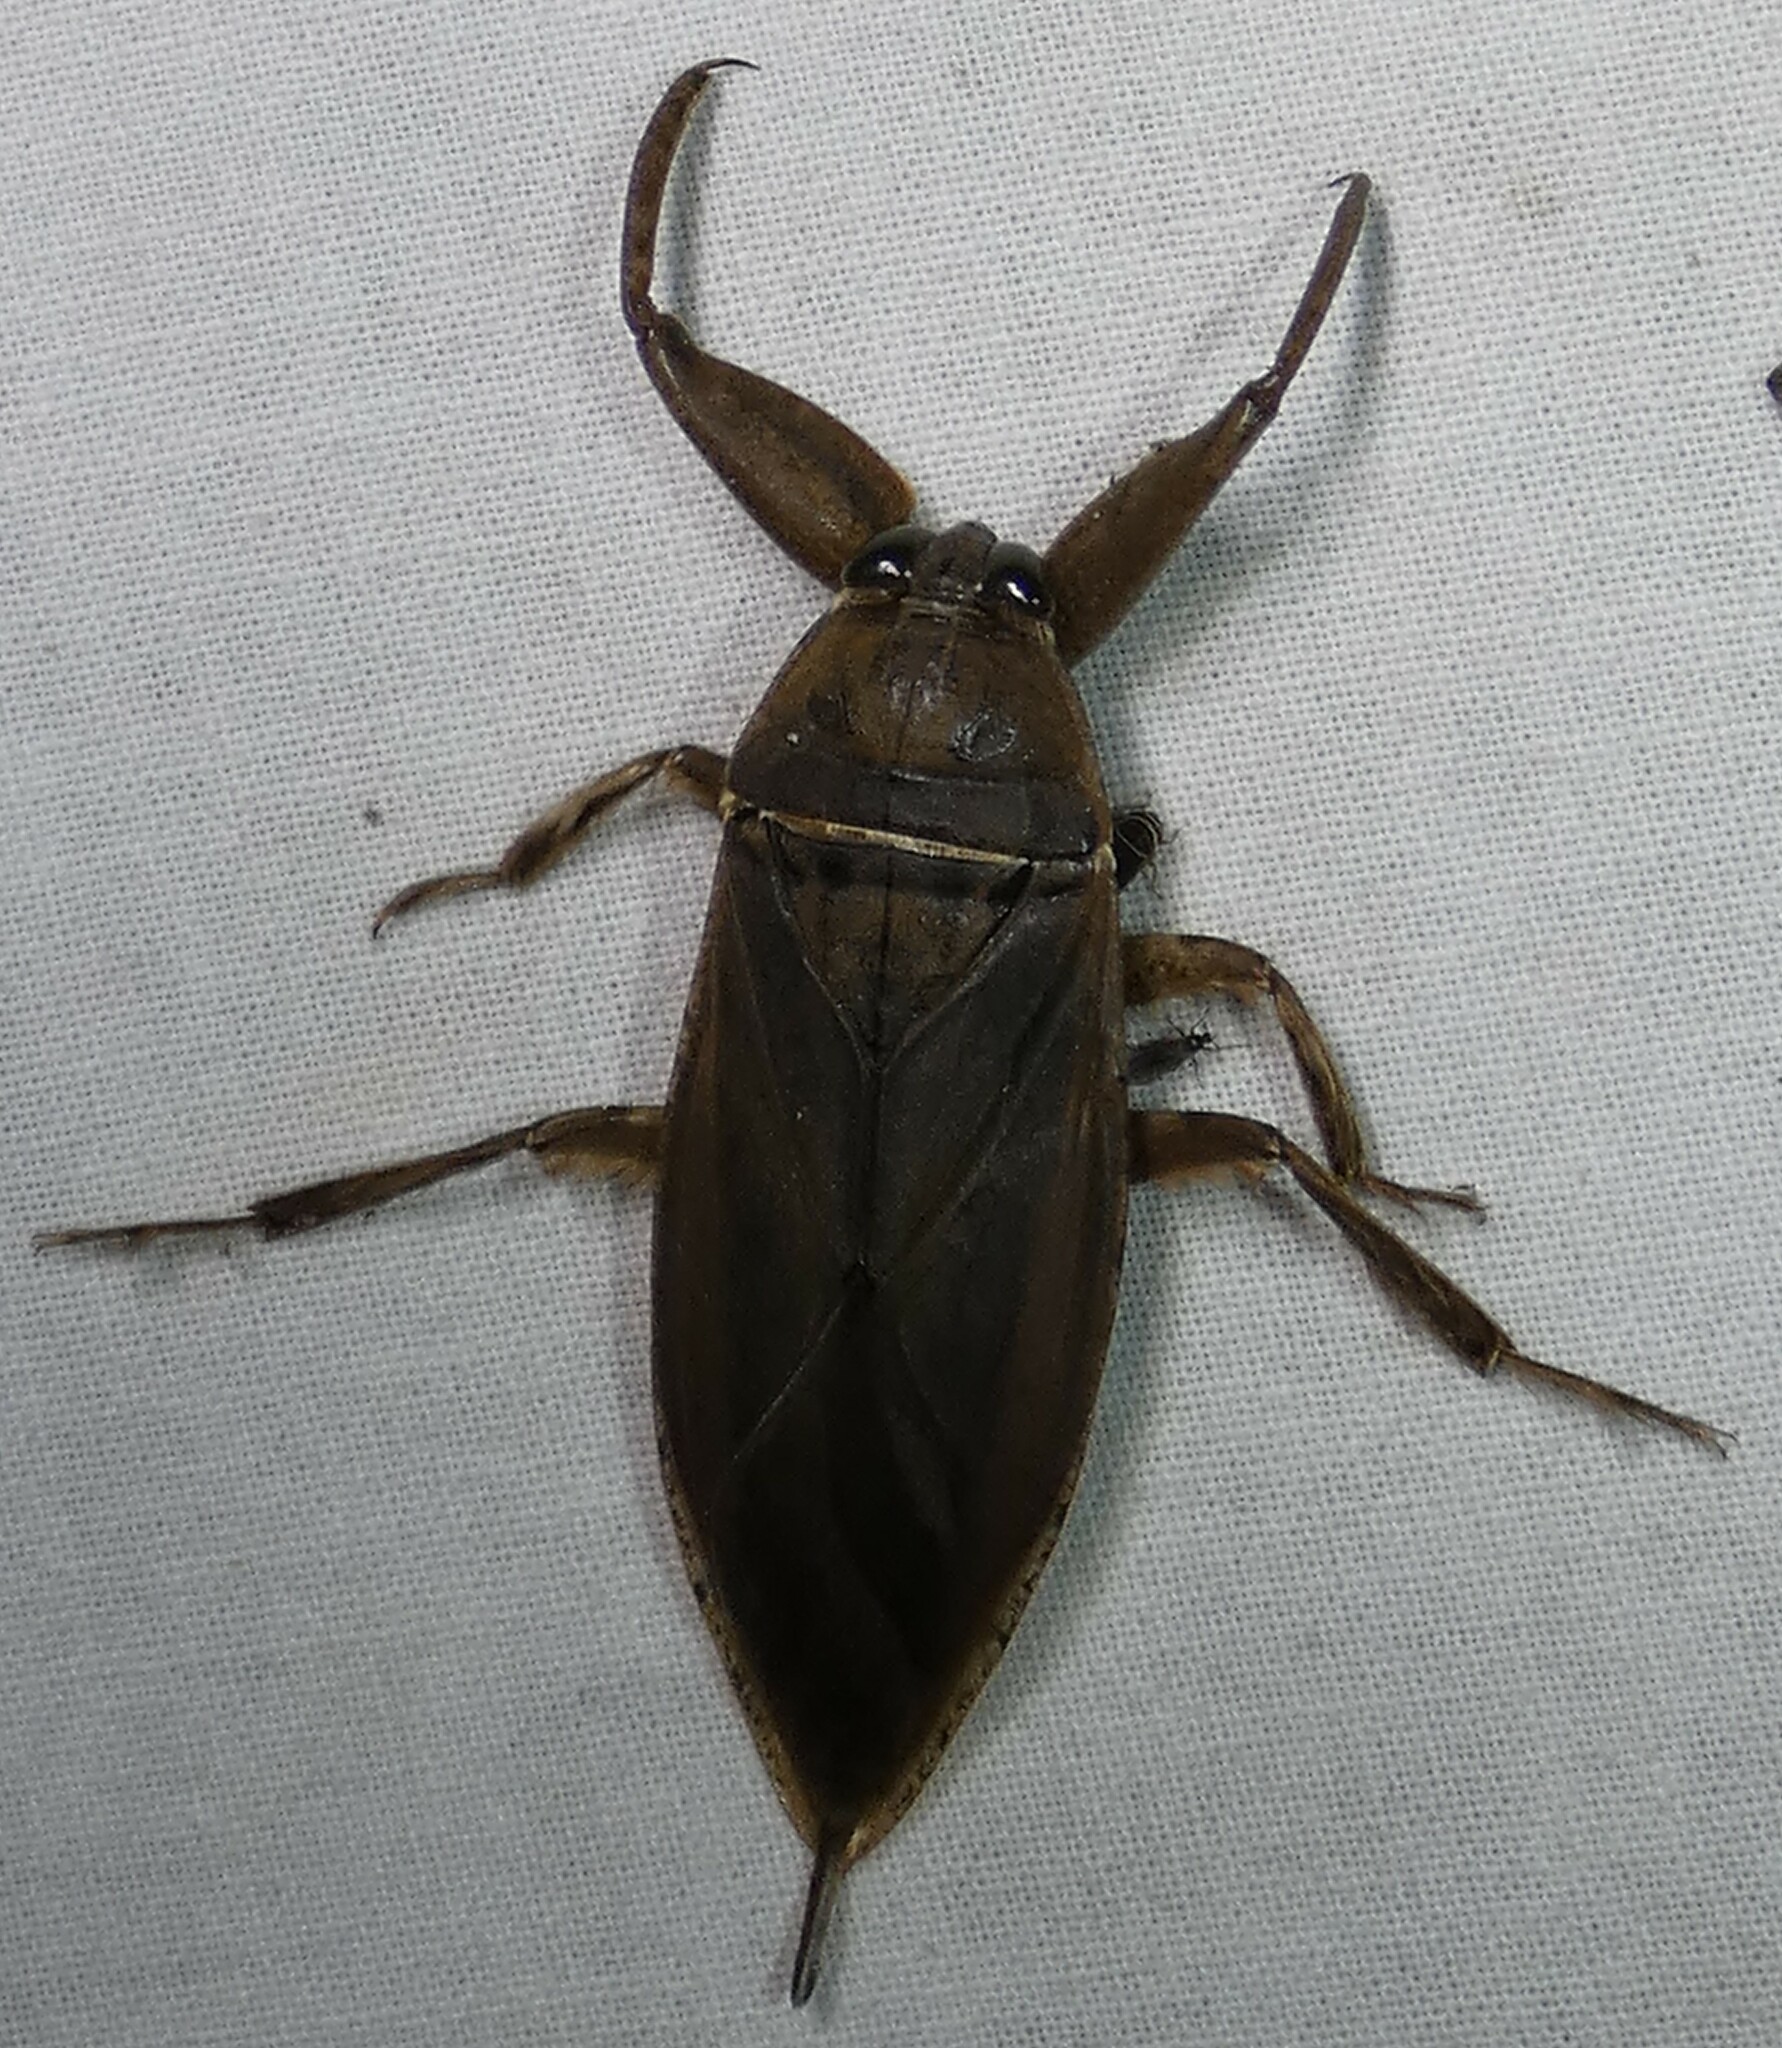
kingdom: Animalia
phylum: Arthropoda
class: Insecta
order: Hemiptera
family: Belostomatidae
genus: Lethocerus
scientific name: Lethocerus uhleri
